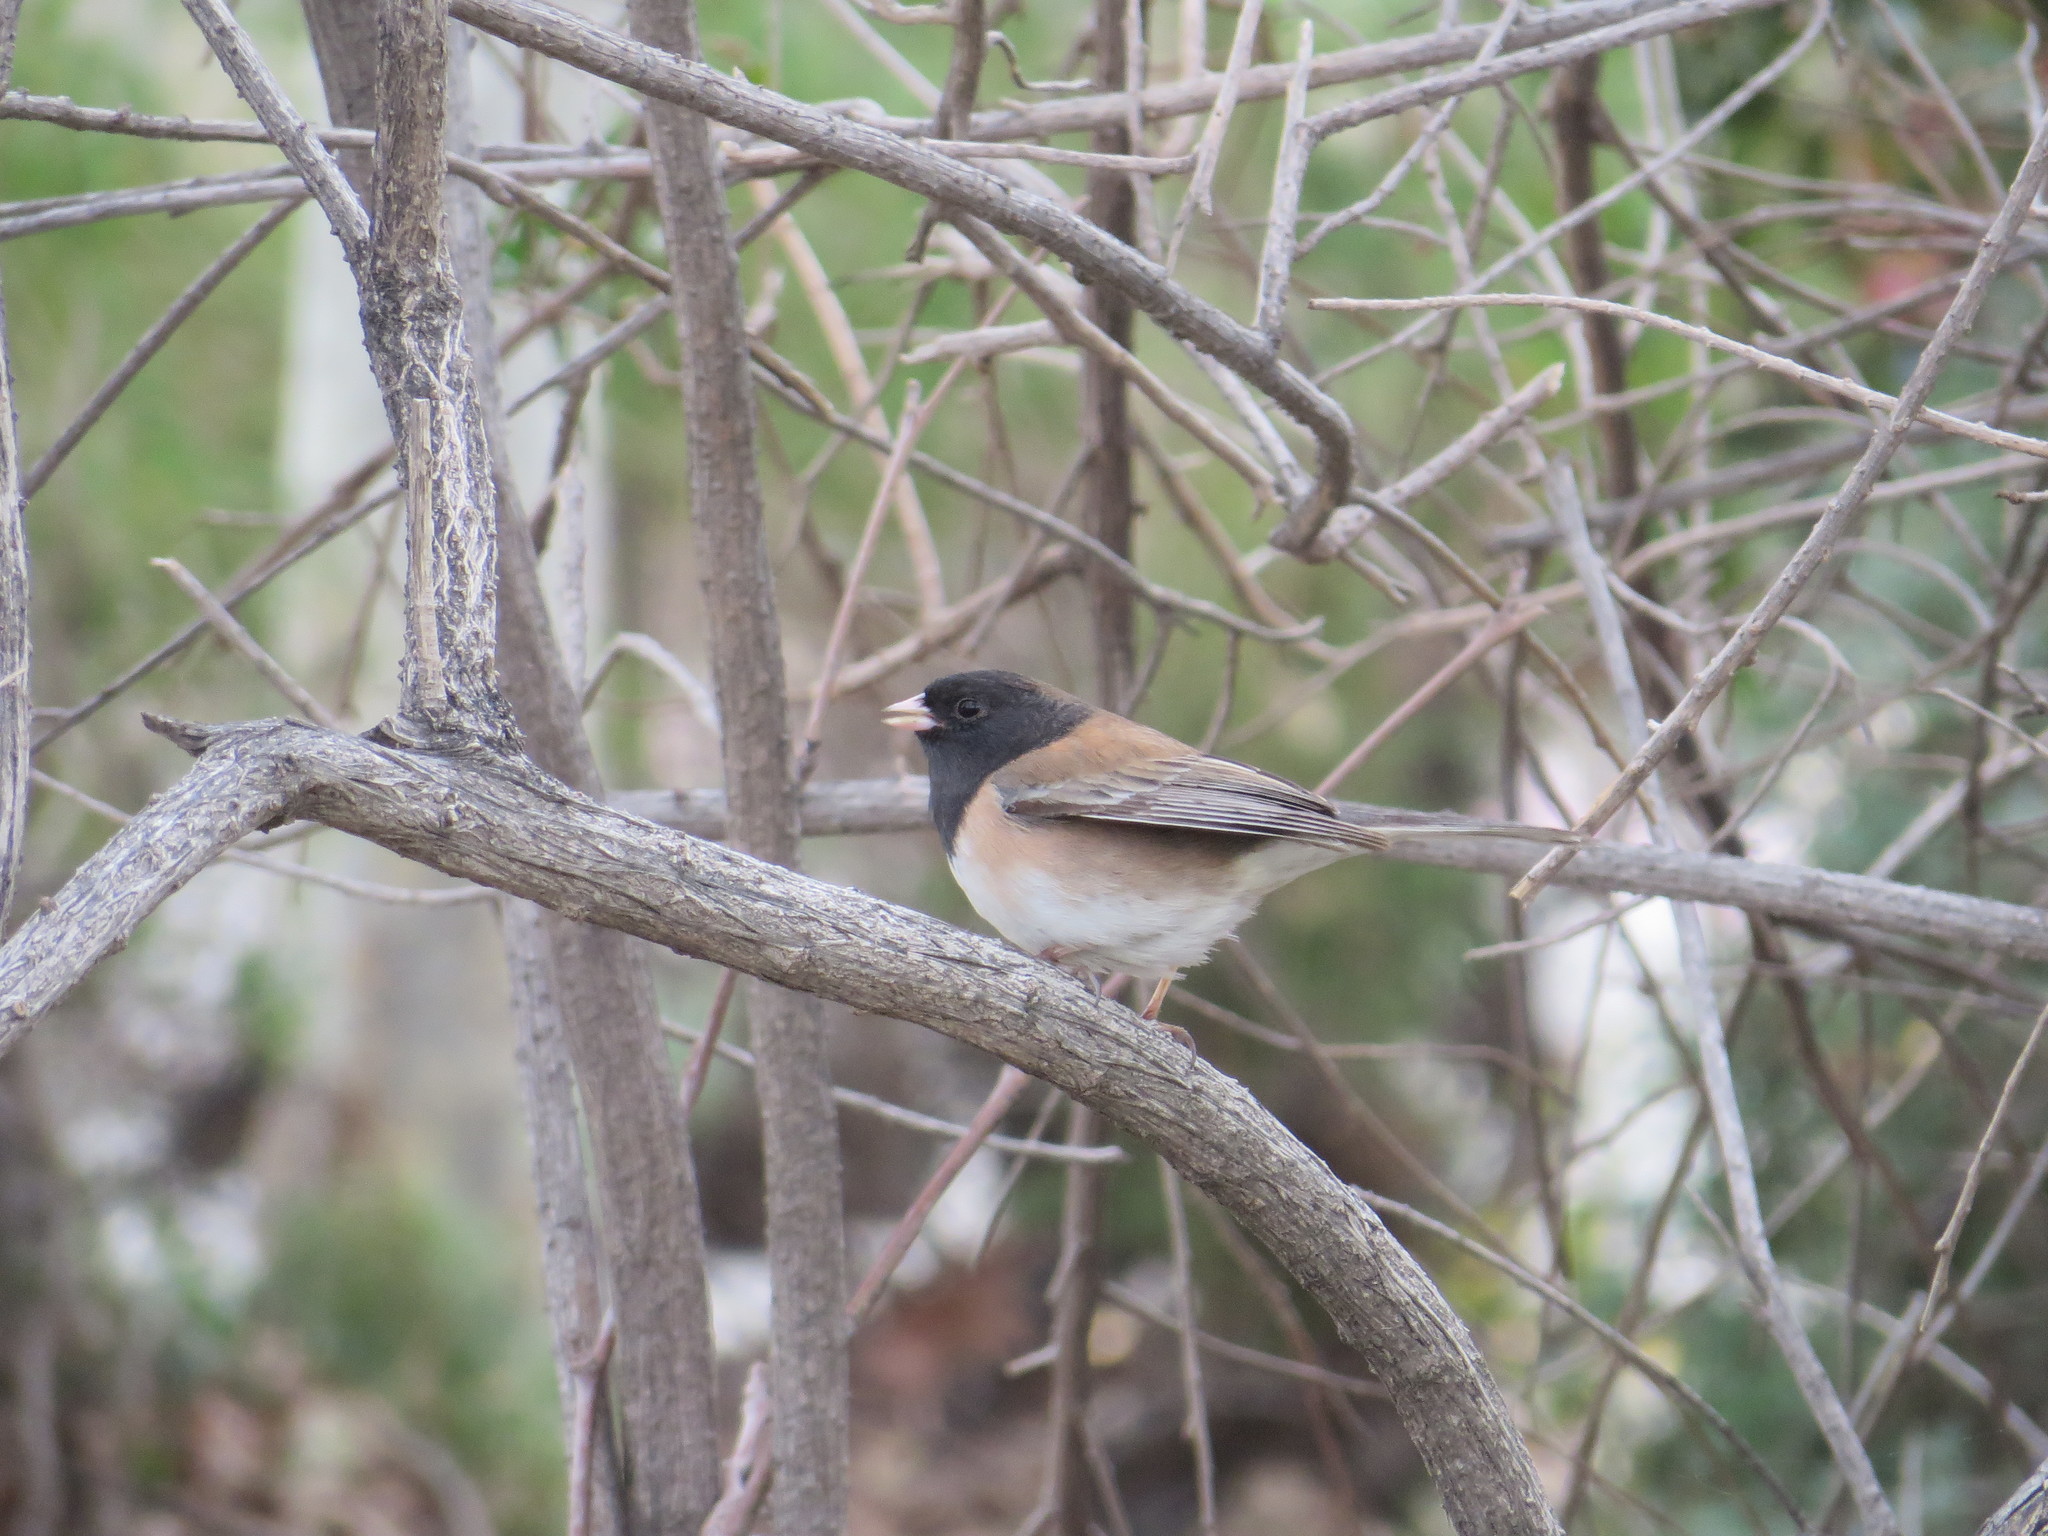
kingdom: Animalia
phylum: Chordata
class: Aves
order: Passeriformes
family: Passerellidae
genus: Junco
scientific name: Junco hyemalis
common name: Dark-eyed junco
